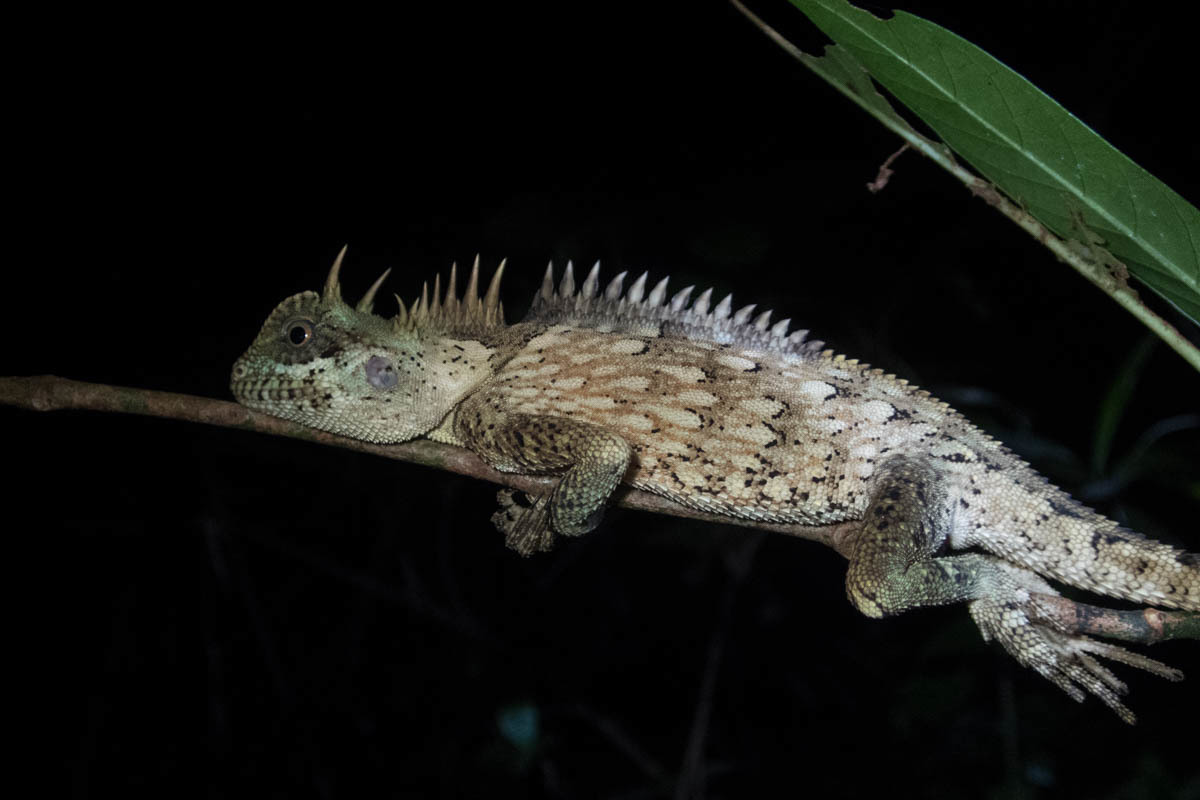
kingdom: Animalia
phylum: Chordata
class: Squamata
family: Agamidae
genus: Acanthosaura
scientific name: Acanthosaura cardamomensis
